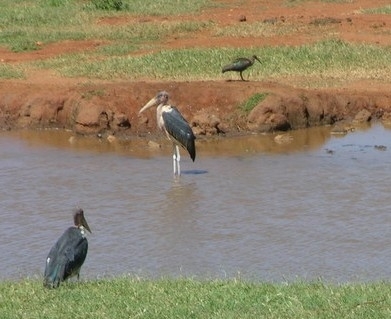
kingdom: Animalia
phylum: Chordata
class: Aves
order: Pelecaniformes
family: Threskiornithidae
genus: Bostrychia
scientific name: Bostrychia hagedash
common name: Hadada ibis
